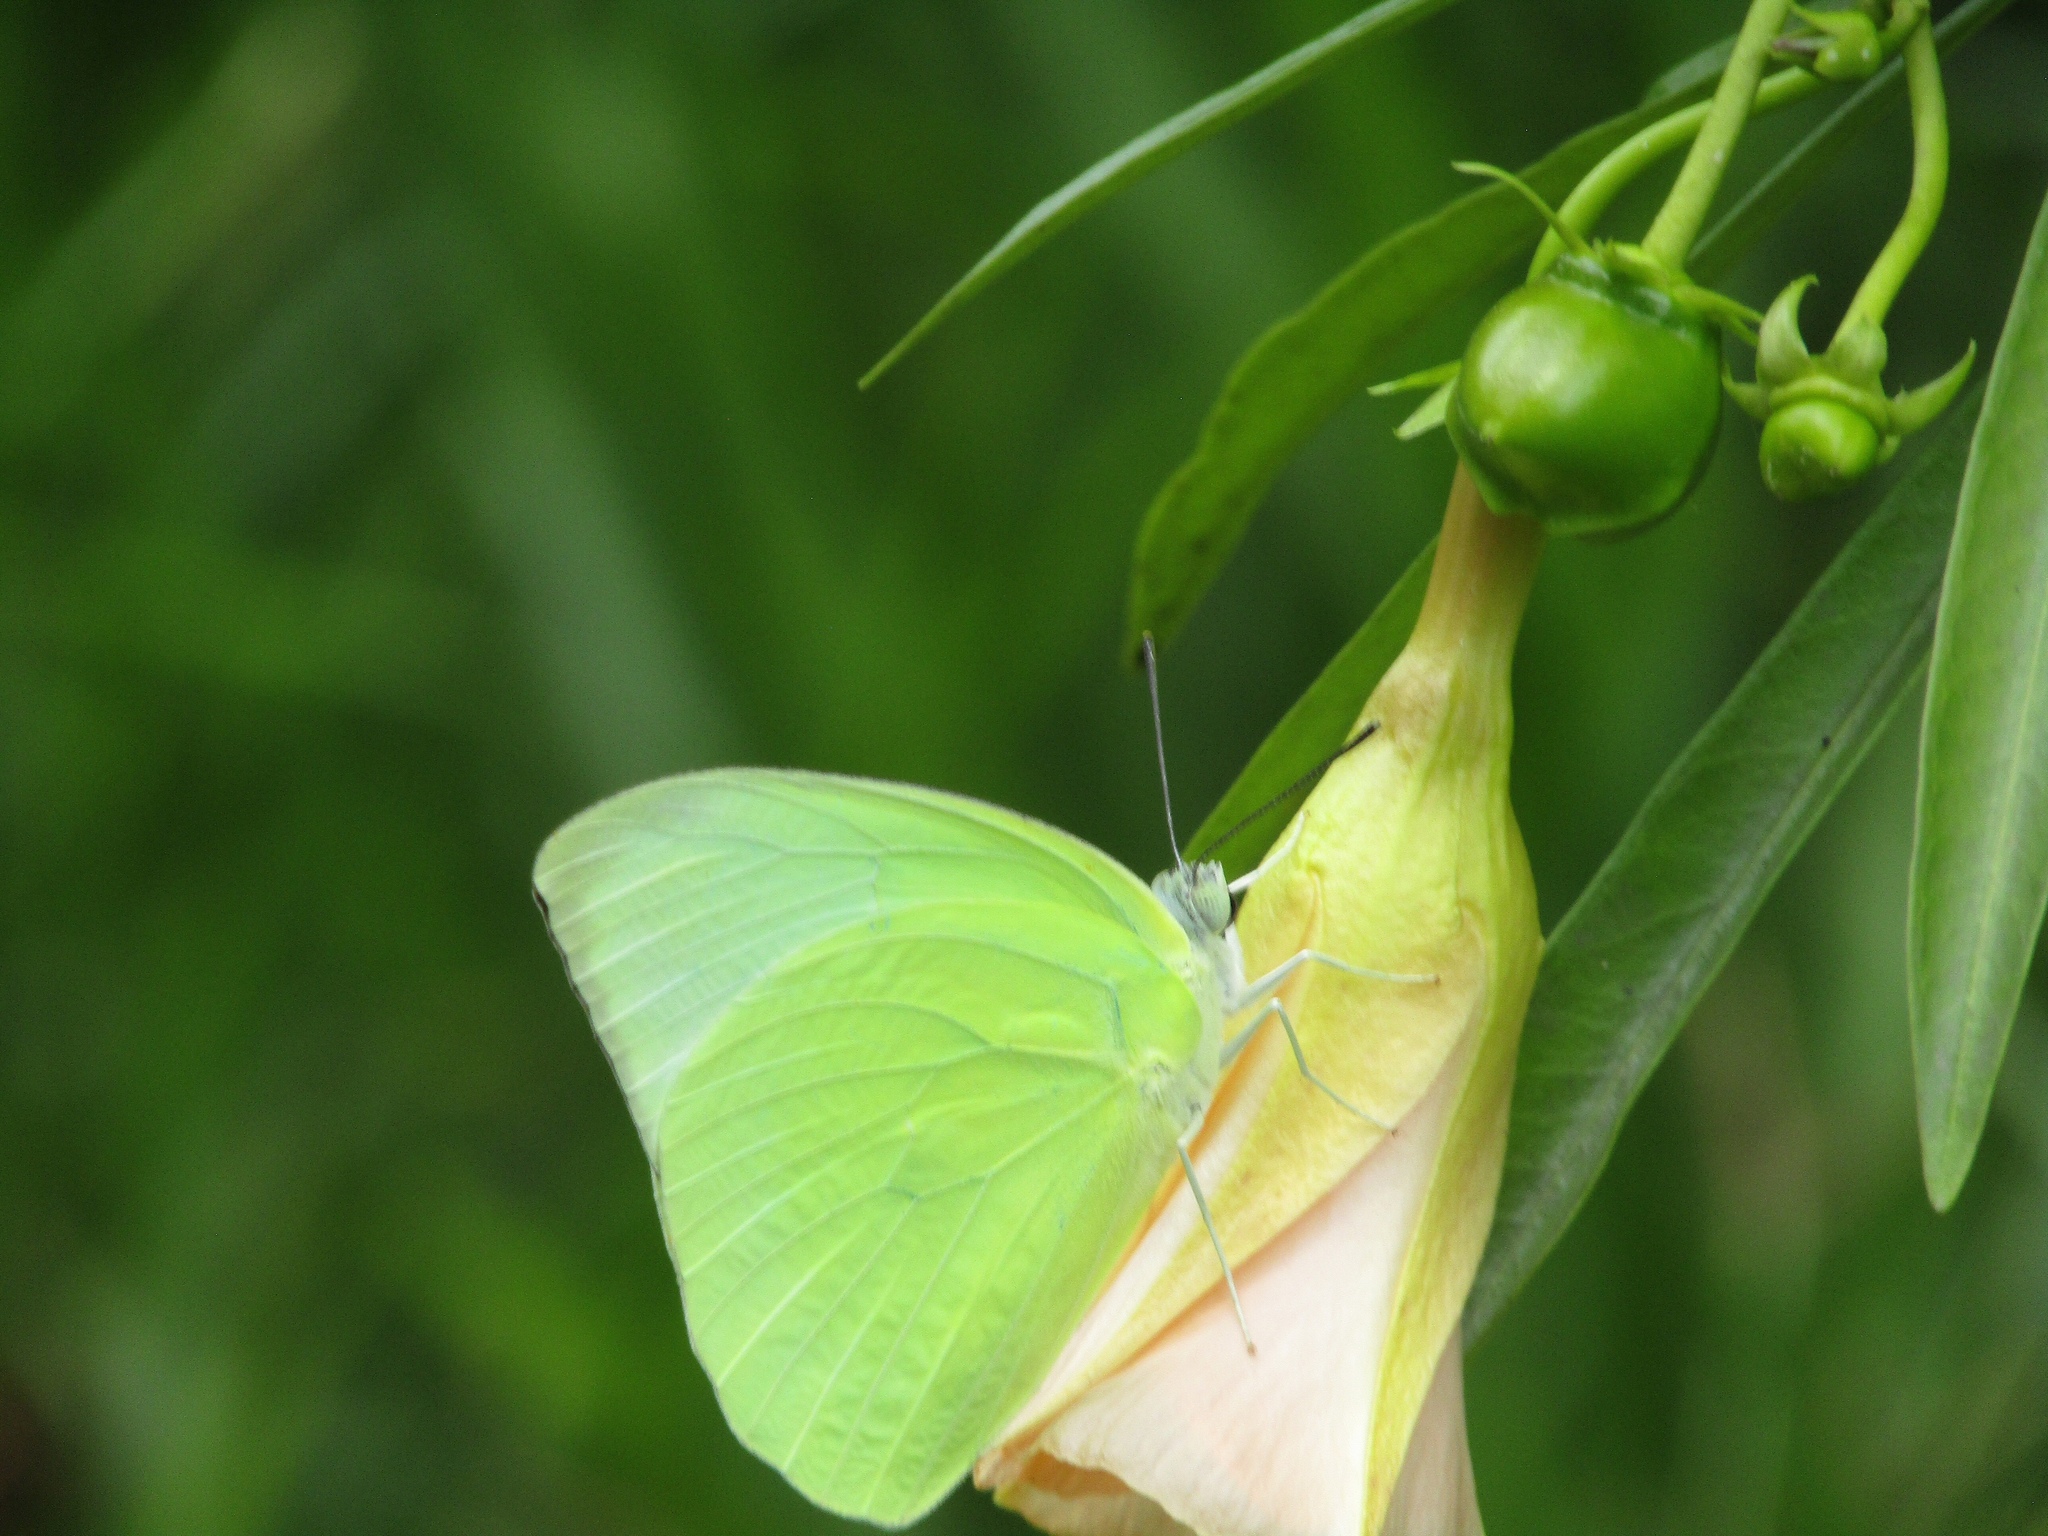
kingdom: Animalia
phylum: Arthropoda
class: Insecta
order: Lepidoptera
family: Pieridae
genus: Catopsilia
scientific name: Catopsilia pomona
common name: Common emigrant
